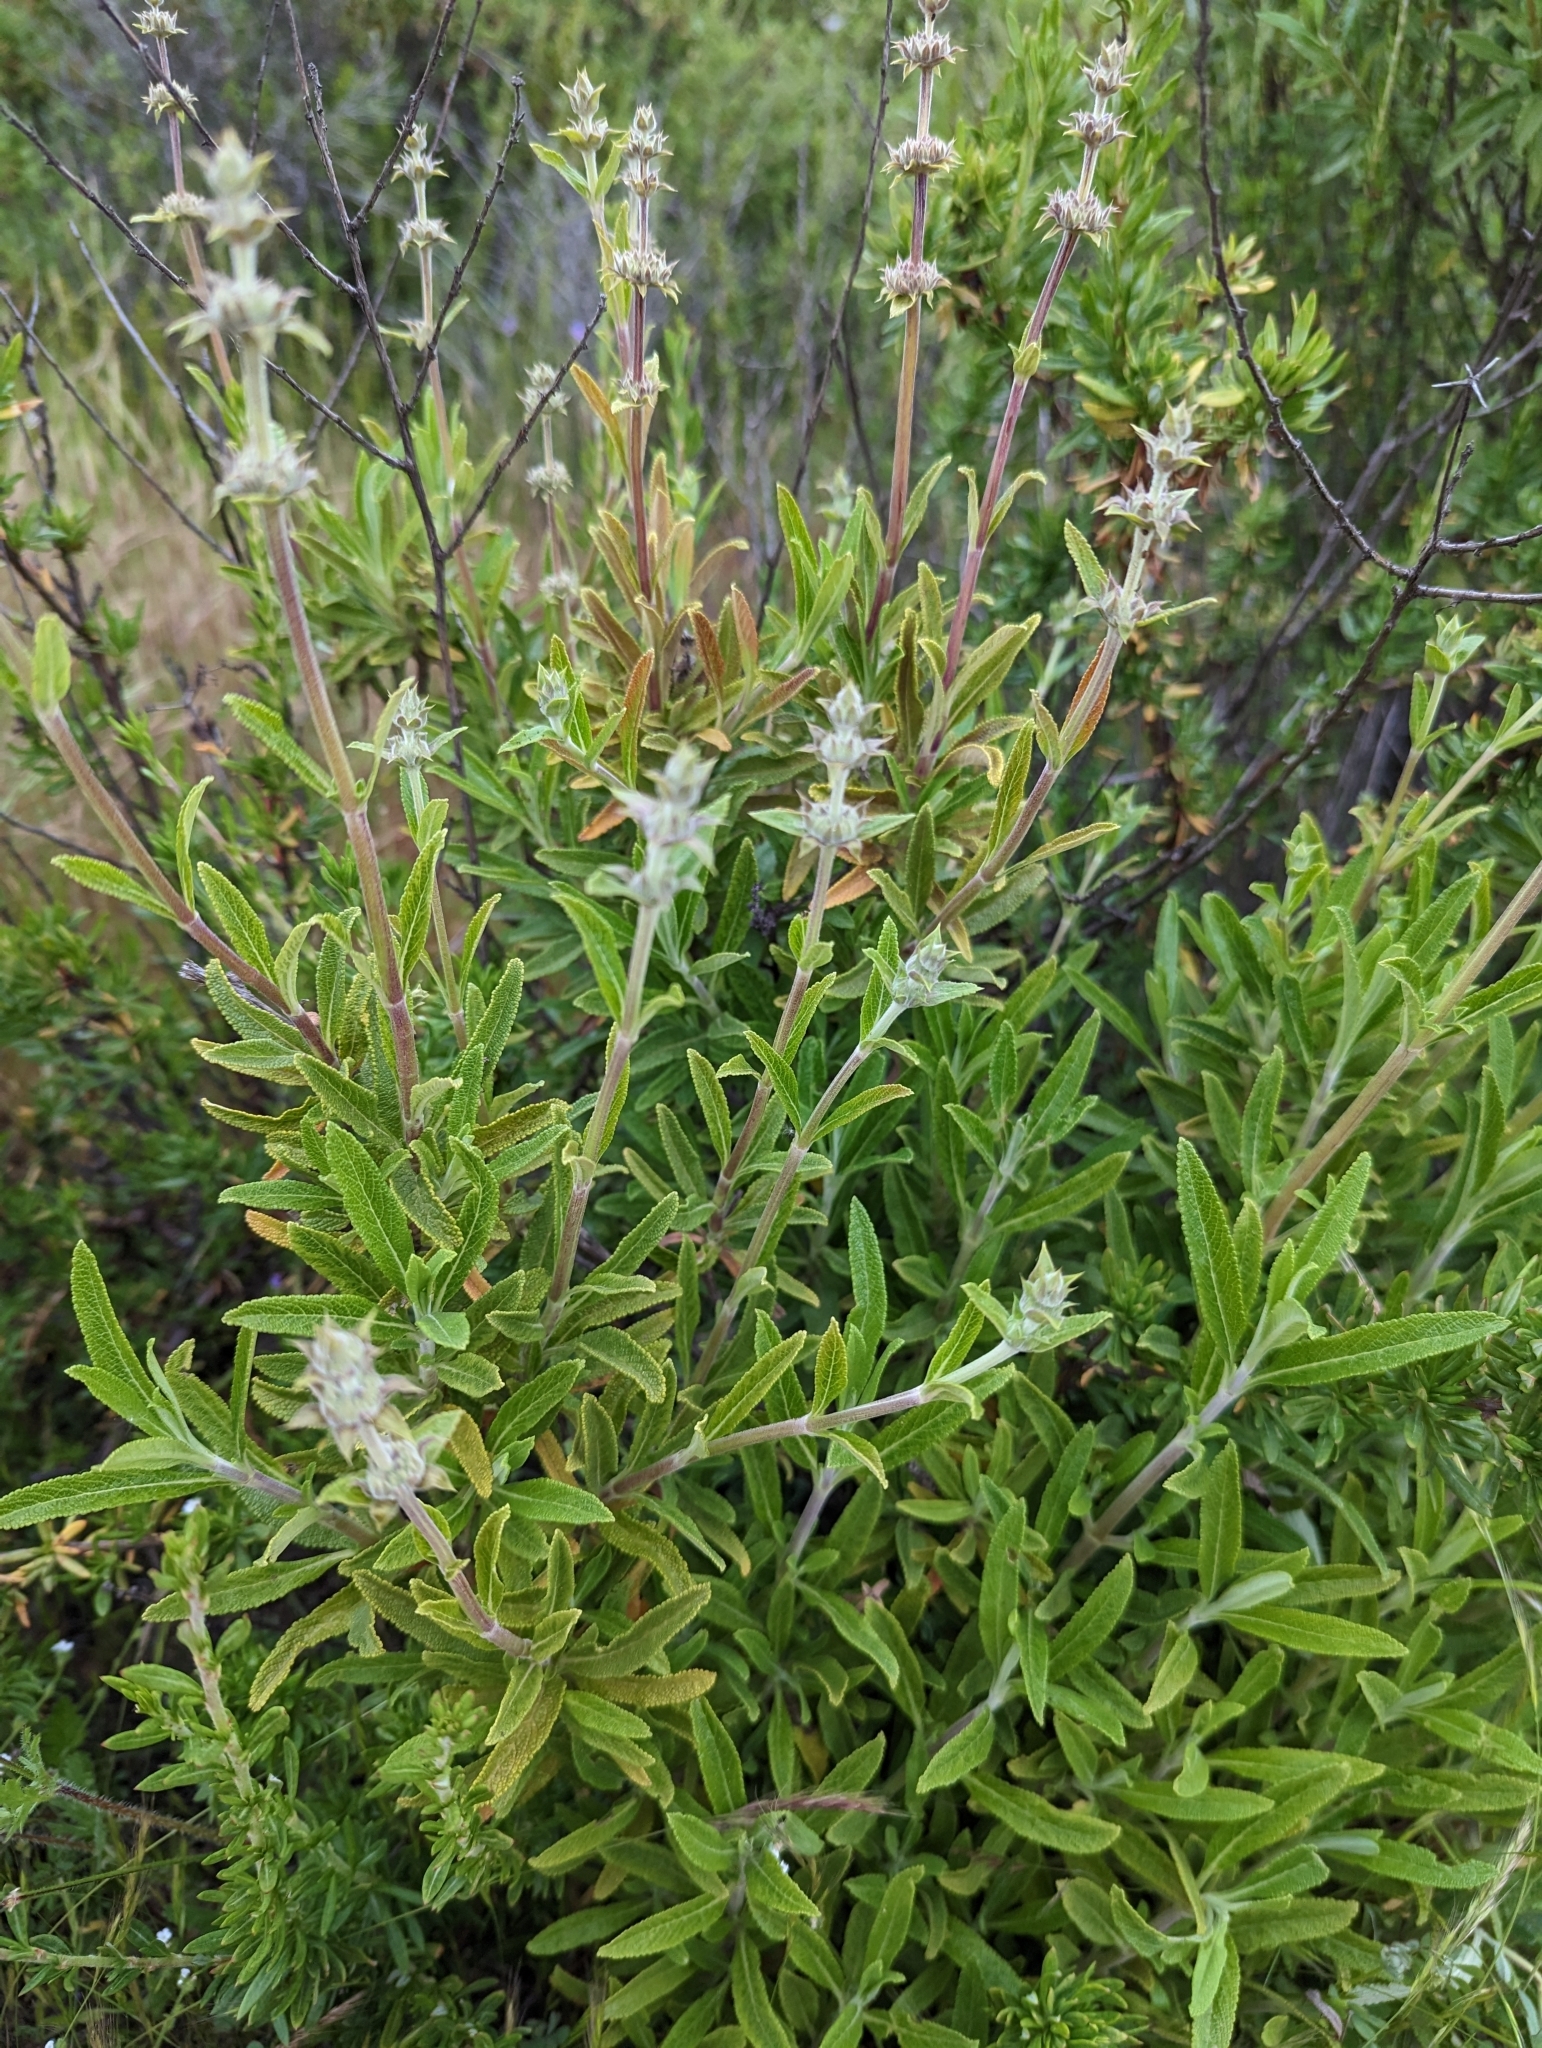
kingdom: Plantae
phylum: Tracheophyta
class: Magnoliopsida
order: Lamiales
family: Lamiaceae
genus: Salvia
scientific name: Salvia mellifera
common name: Black sage
